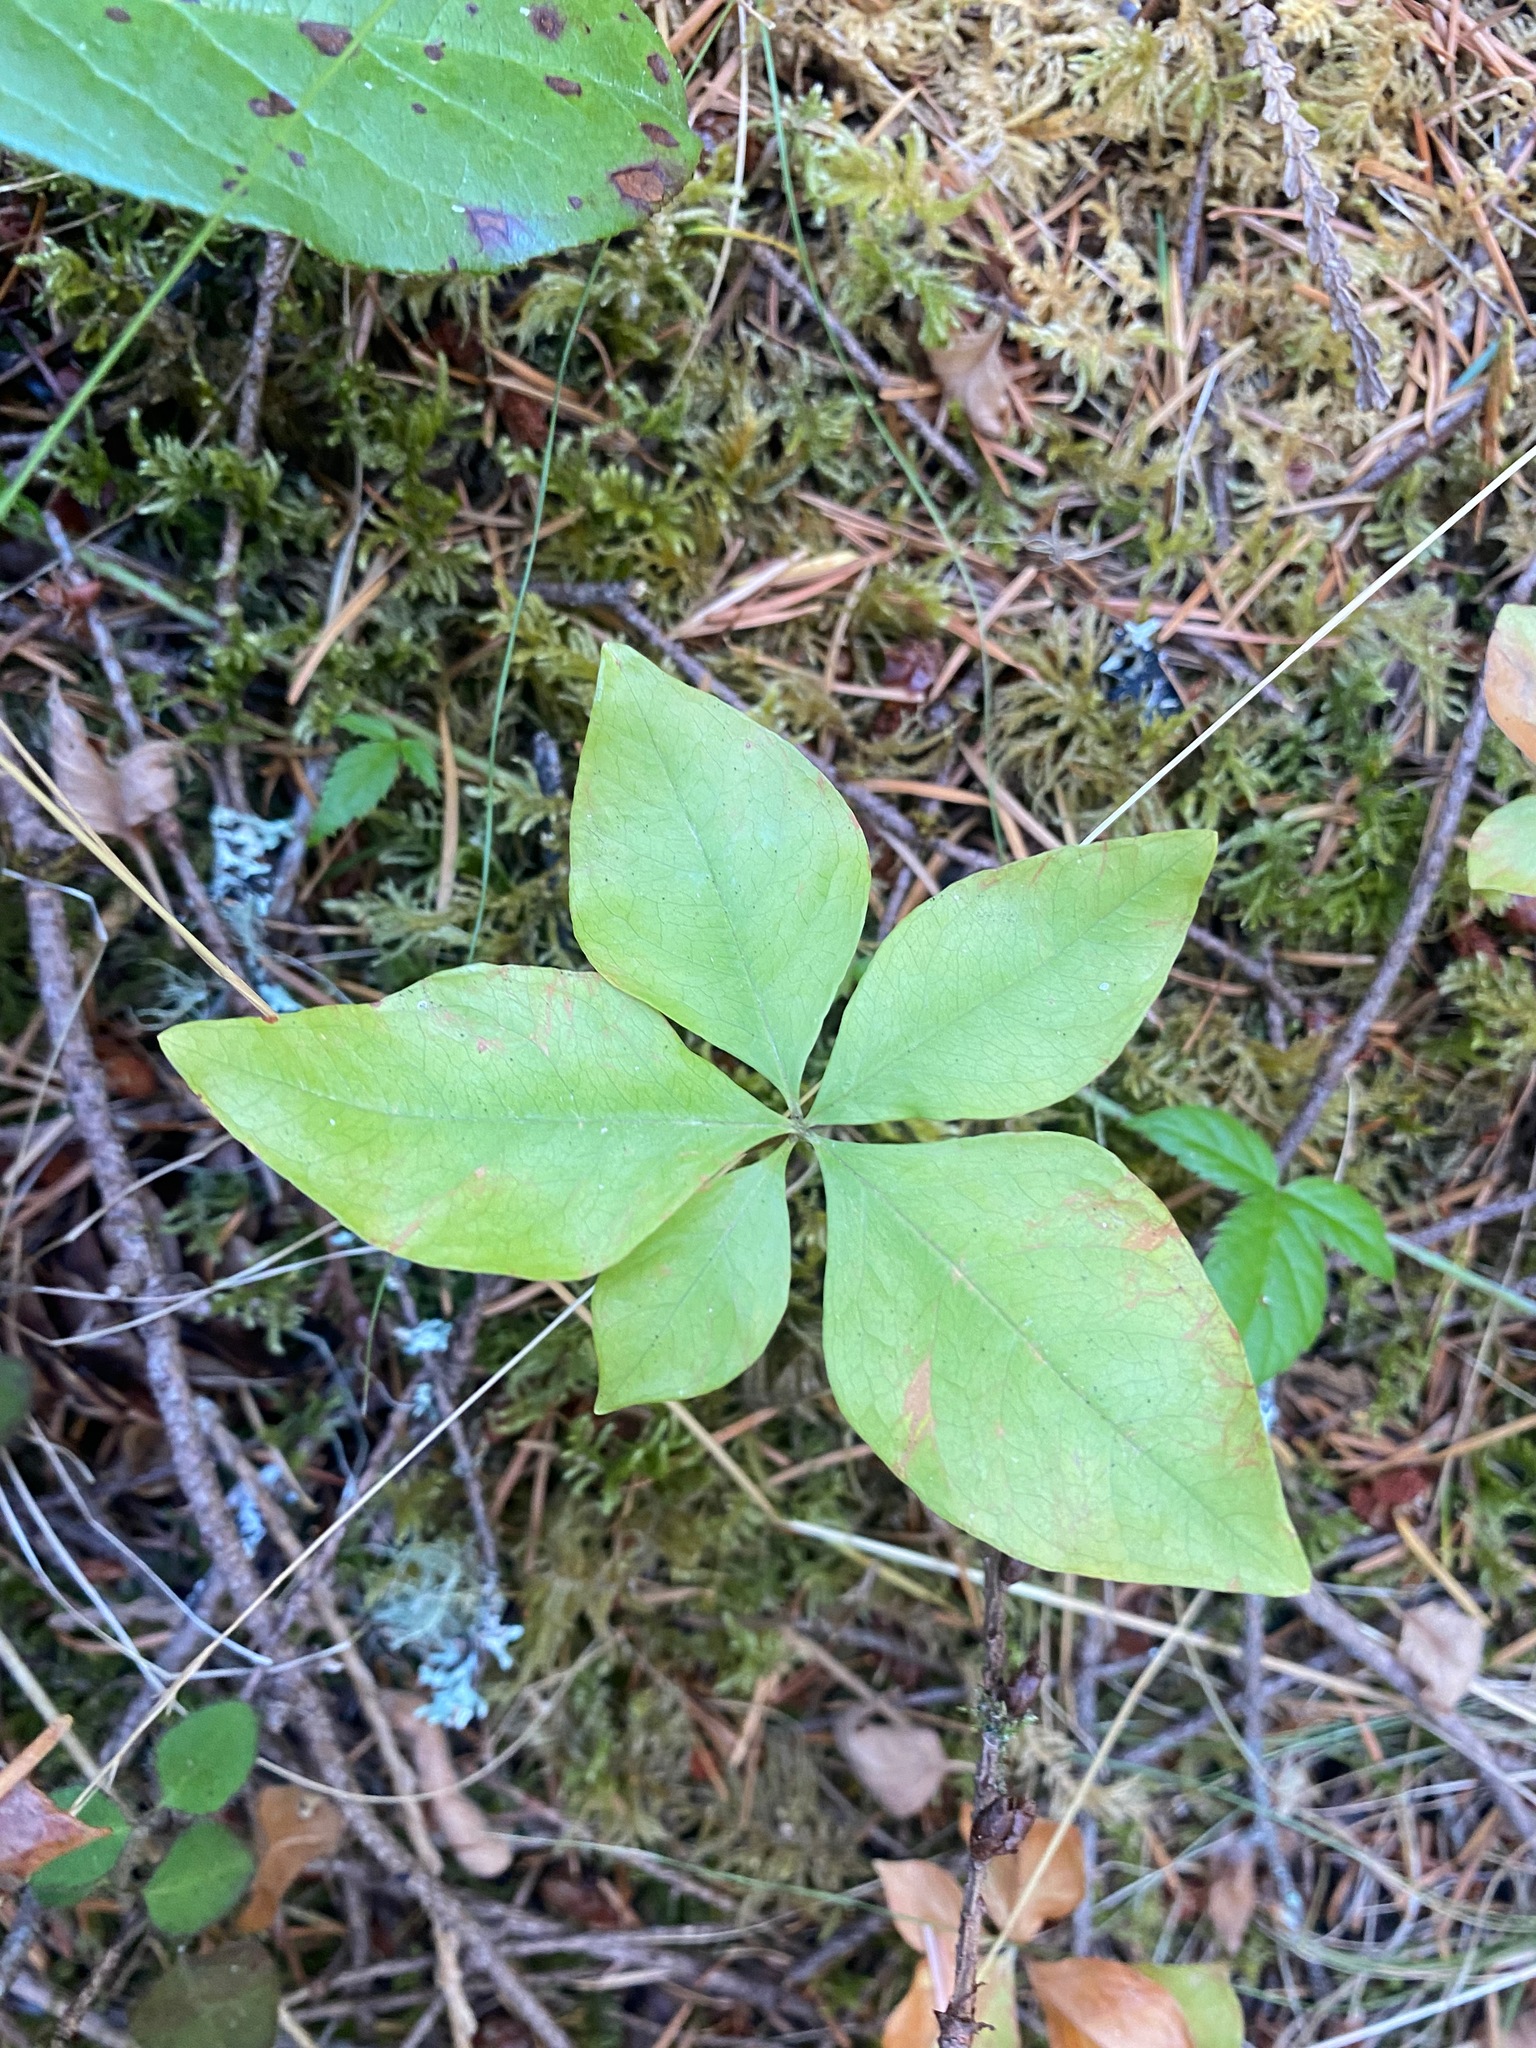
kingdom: Plantae
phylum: Tracheophyta
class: Magnoliopsida
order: Ericales
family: Primulaceae
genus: Lysimachia
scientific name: Lysimachia latifolia
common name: Pacific starflower
